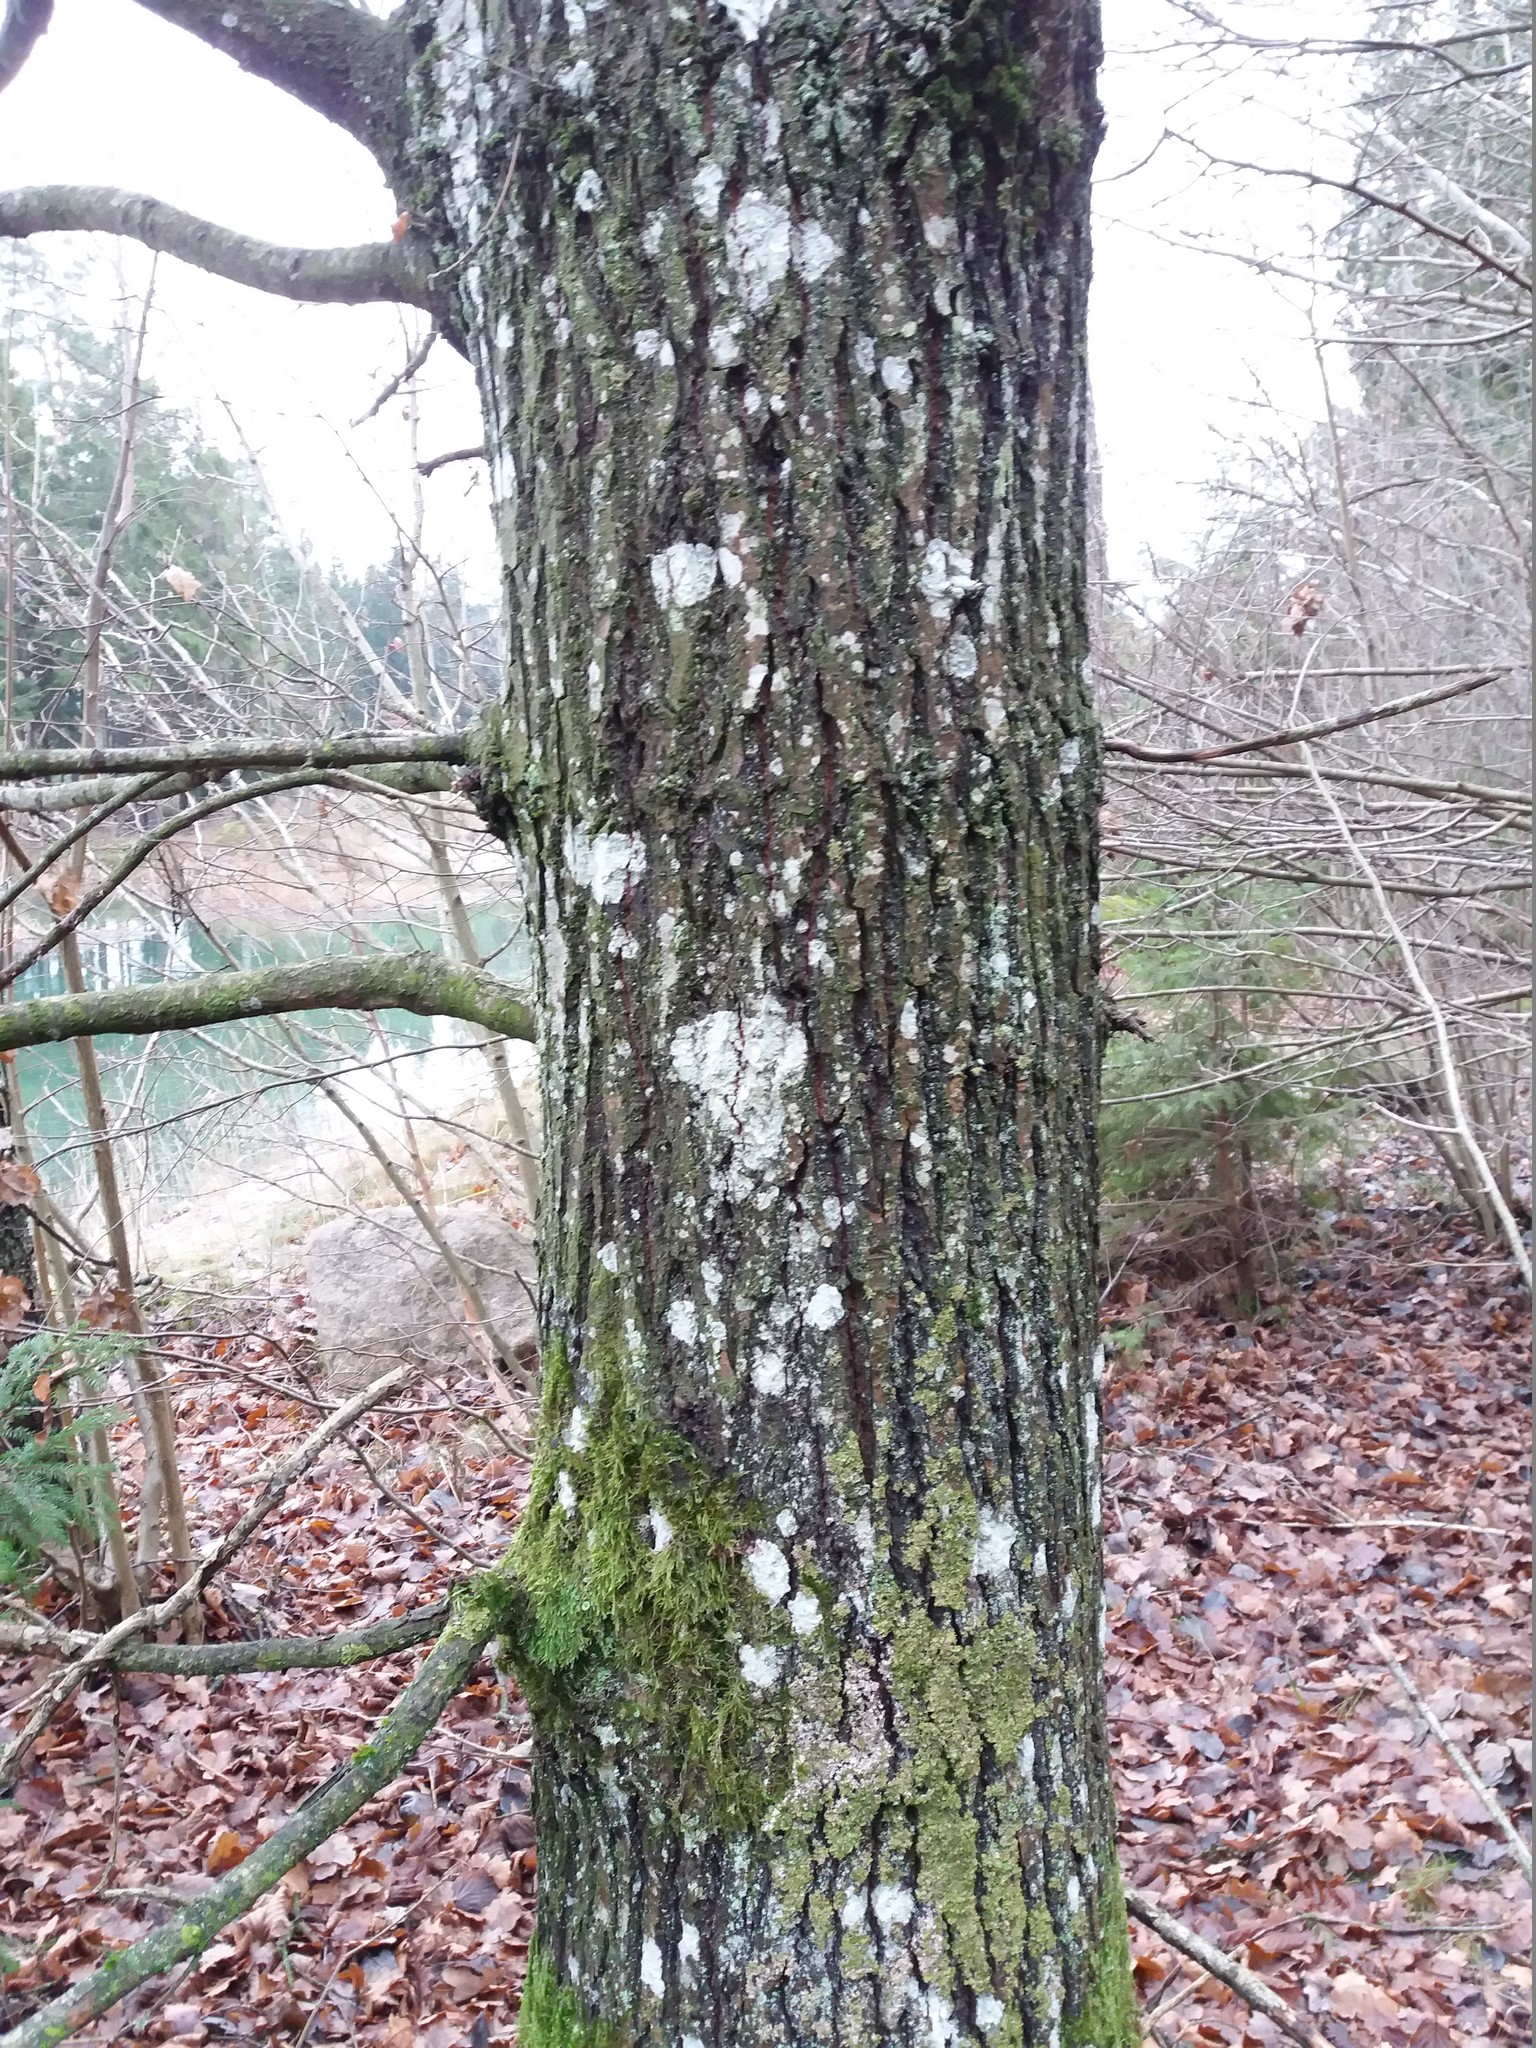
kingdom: Plantae
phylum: Tracheophyta
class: Magnoliopsida
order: Fagales
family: Fagaceae
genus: Quercus
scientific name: Quercus robur
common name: Pedunculate oak
